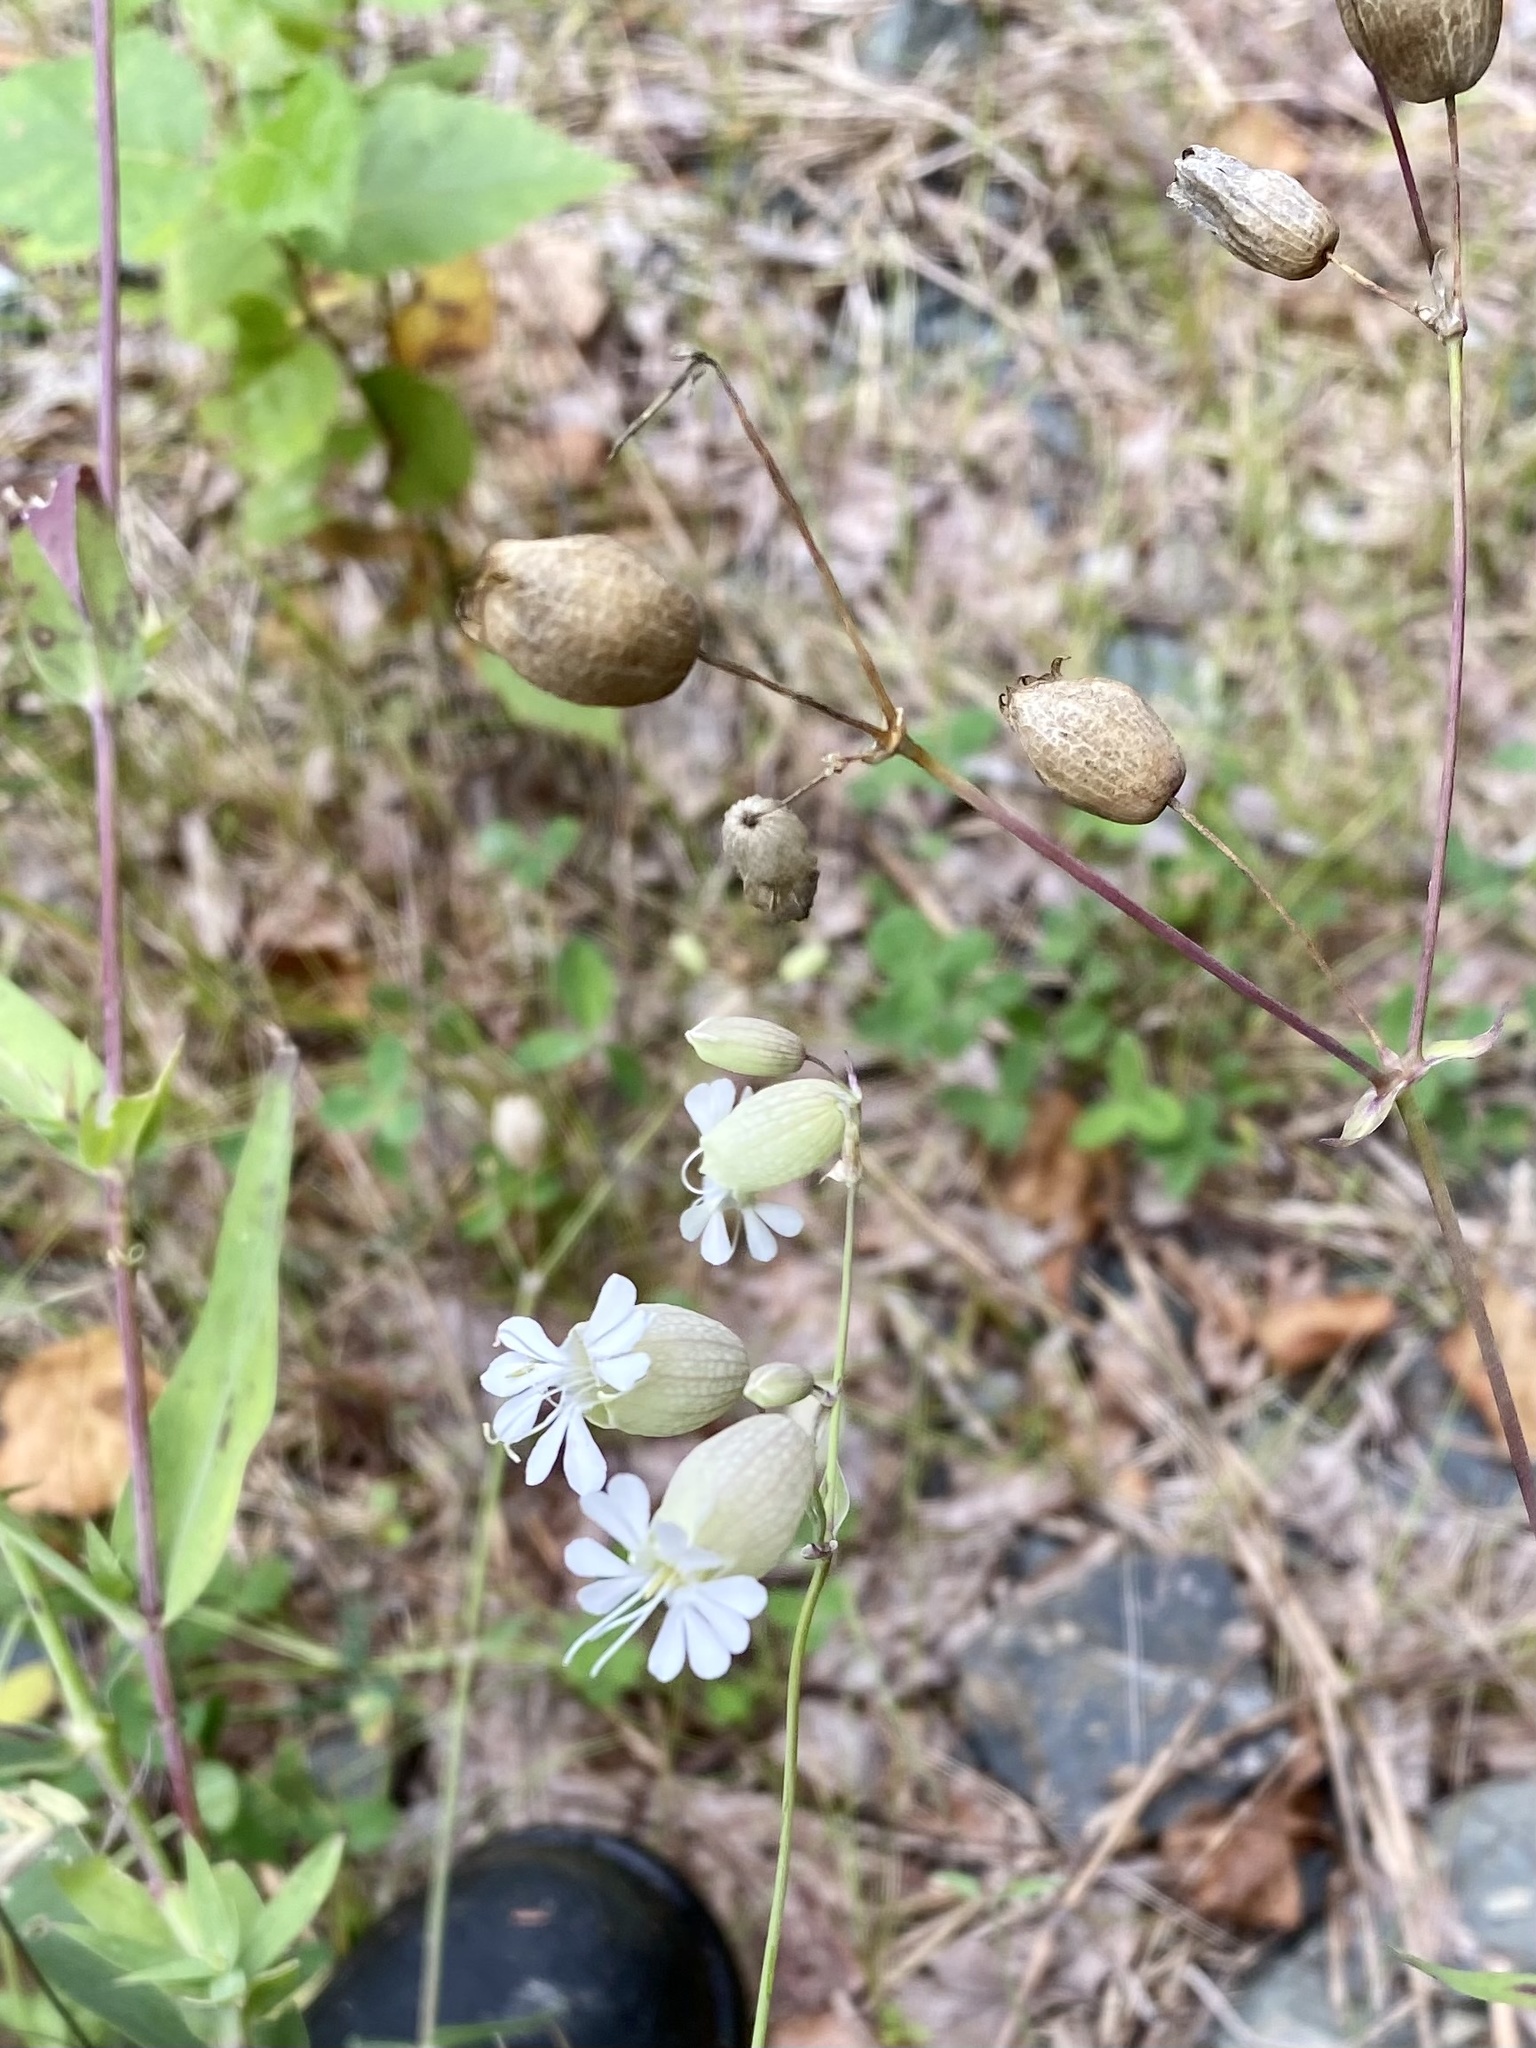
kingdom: Plantae
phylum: Tracheophyta
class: Magnoliopsida
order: Caryophyllales
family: Caryophyllaceae
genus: Silene
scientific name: Silene vulgaris
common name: Bladder campion
